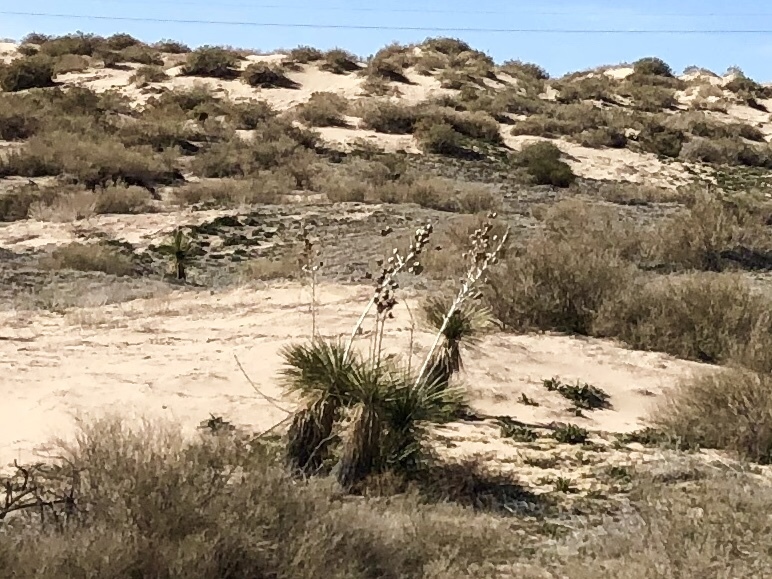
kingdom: Plantae
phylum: Tracheophyta
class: Liliopsida
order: Asparagales
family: Asparagaceae
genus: Yucca
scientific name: Yucca elata
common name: Palmella
